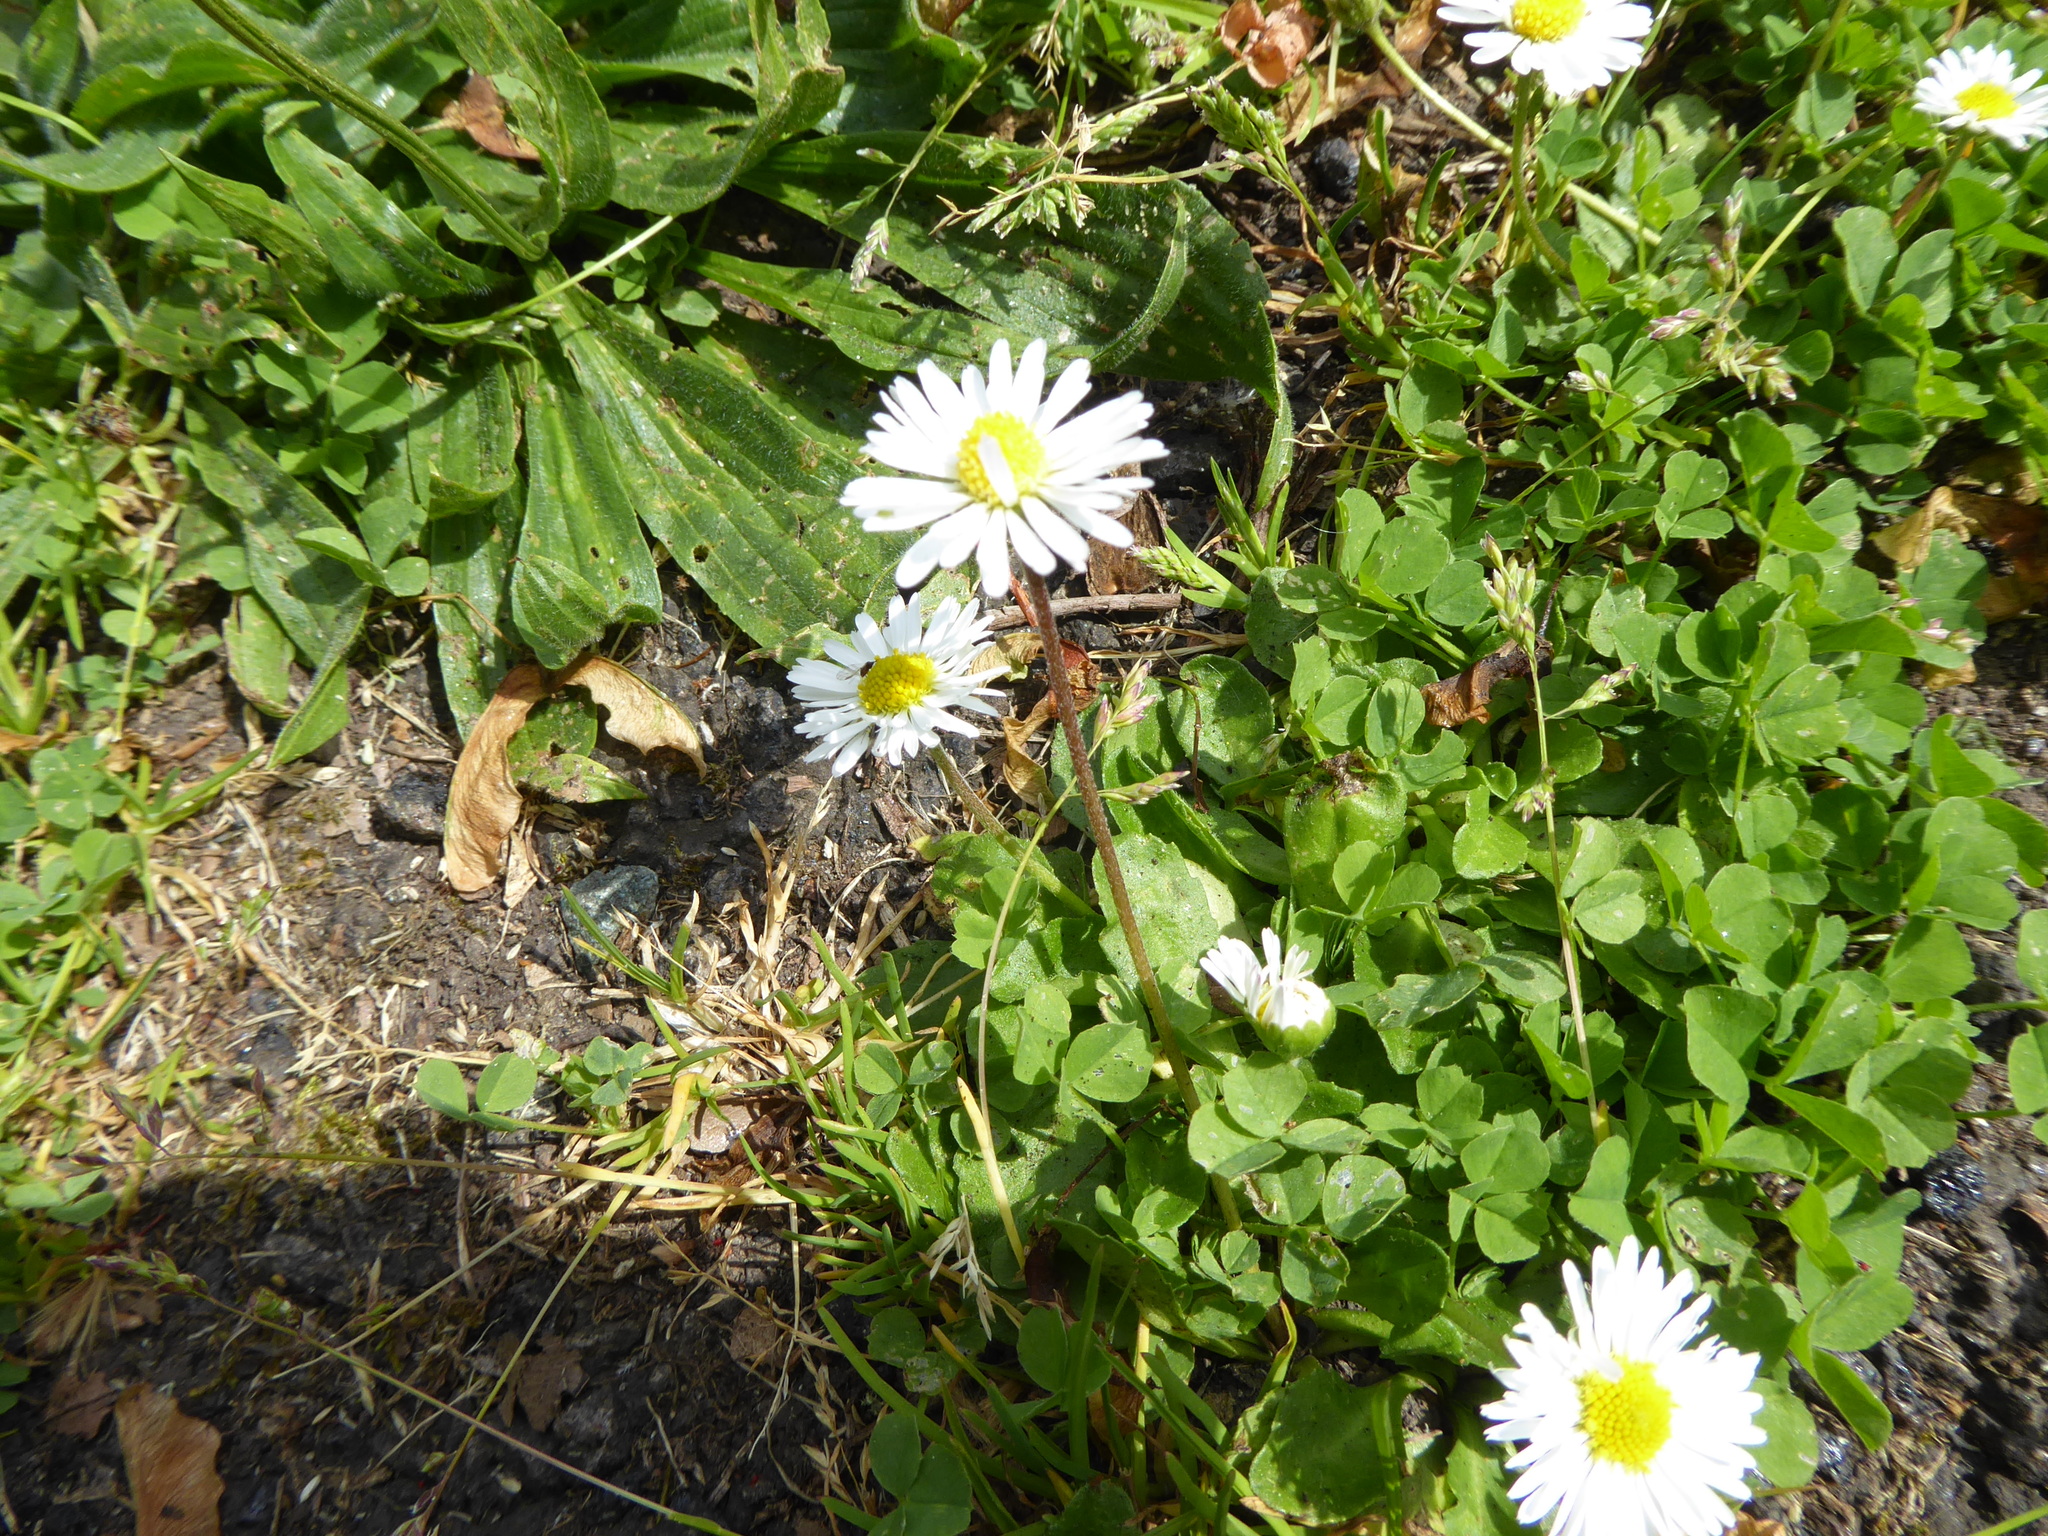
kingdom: Plantae
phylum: Tracheophyta
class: Magnoliopsida
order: Asterales
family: Asteraceae
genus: Bellis
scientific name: Bellis perennis
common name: Lawndaisy
